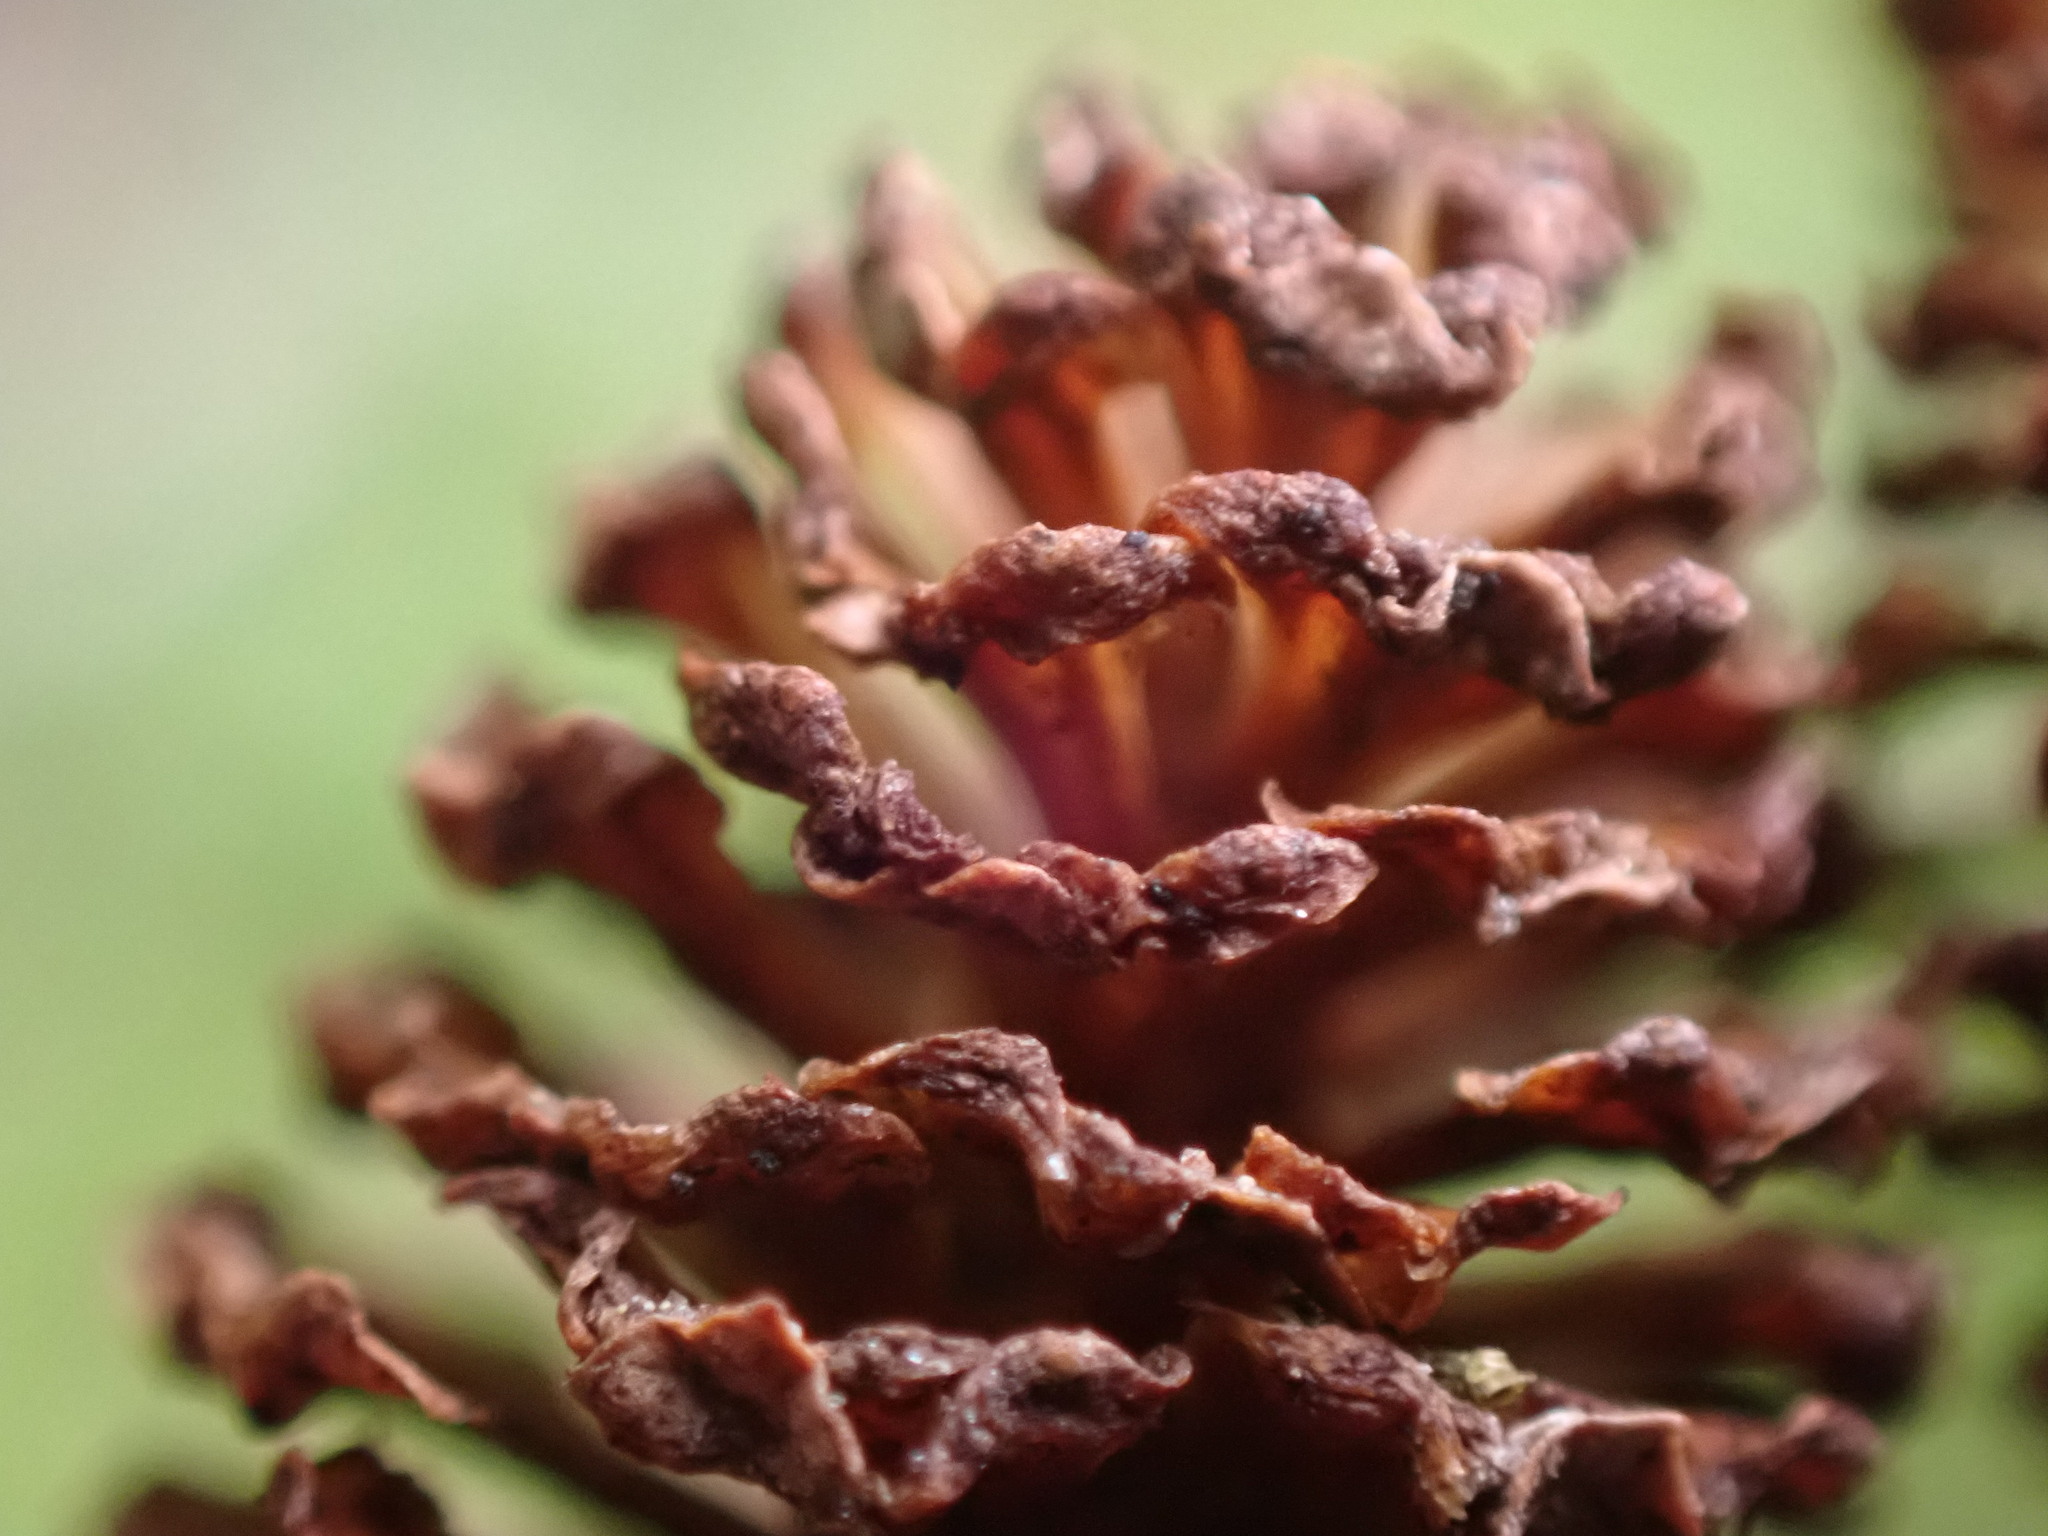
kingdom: Plantae
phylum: Tracheophyta
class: Magnoliopsida
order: Fagales
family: Betulaceae
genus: Alnus
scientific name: Alnus rubra
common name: Red alder
